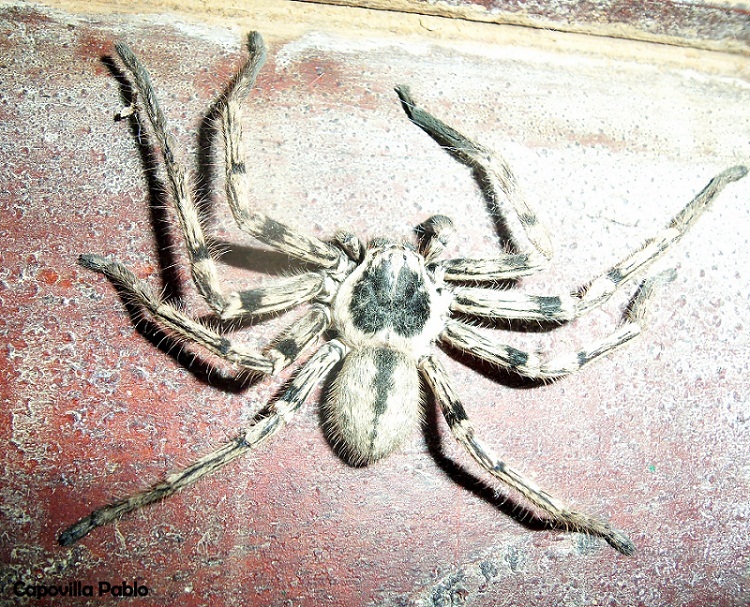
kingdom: Animalia
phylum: Arthropoda
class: Arachnida
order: Araneae
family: Sparassidae
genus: Polybetes
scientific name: Polybetes pythagoricus
